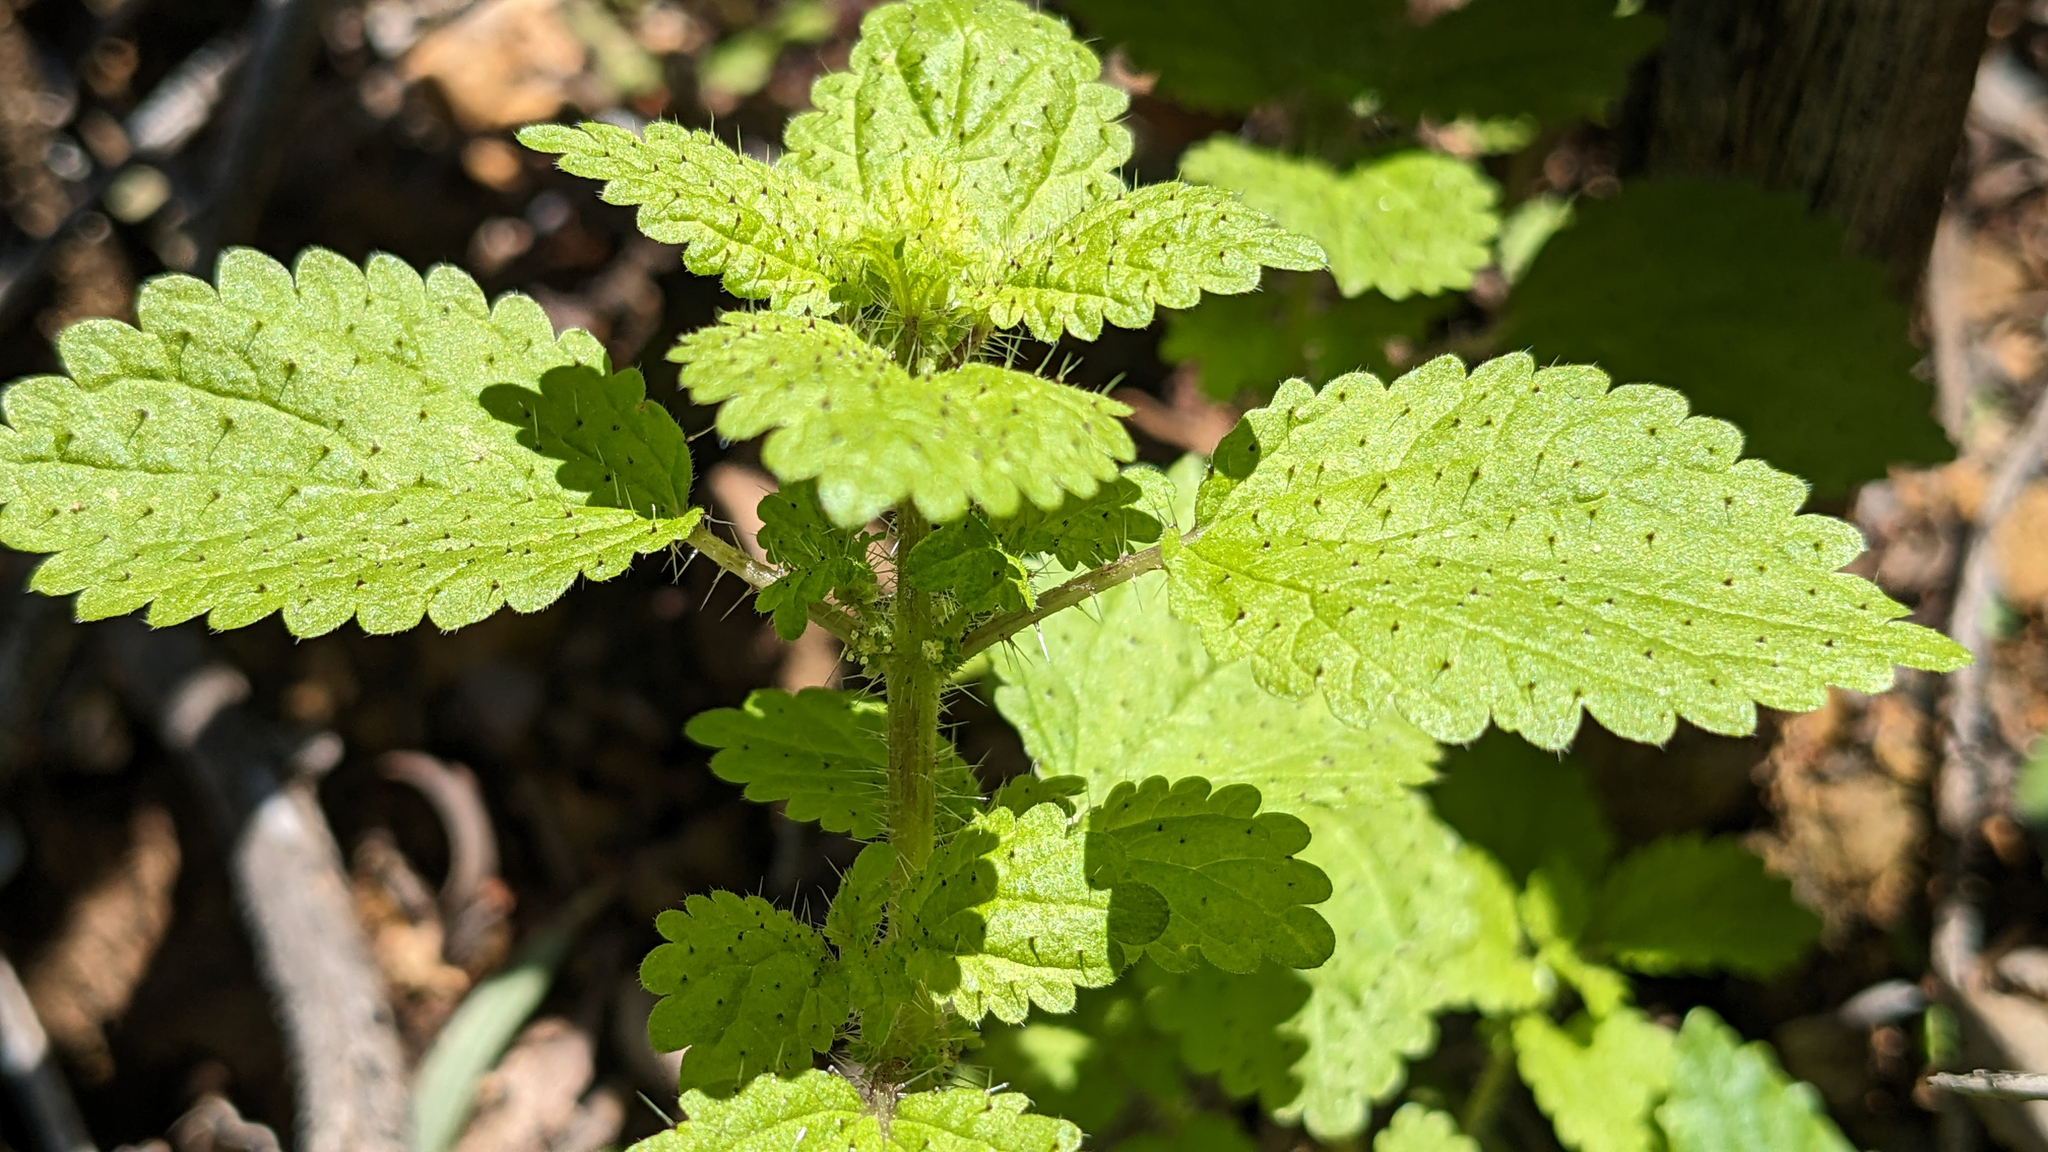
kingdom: Plantae
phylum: Tracheophyta
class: Magnoliopsida
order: Rosales
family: Urticaceae
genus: Hesperocnide
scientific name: Hesperocnide tenella
